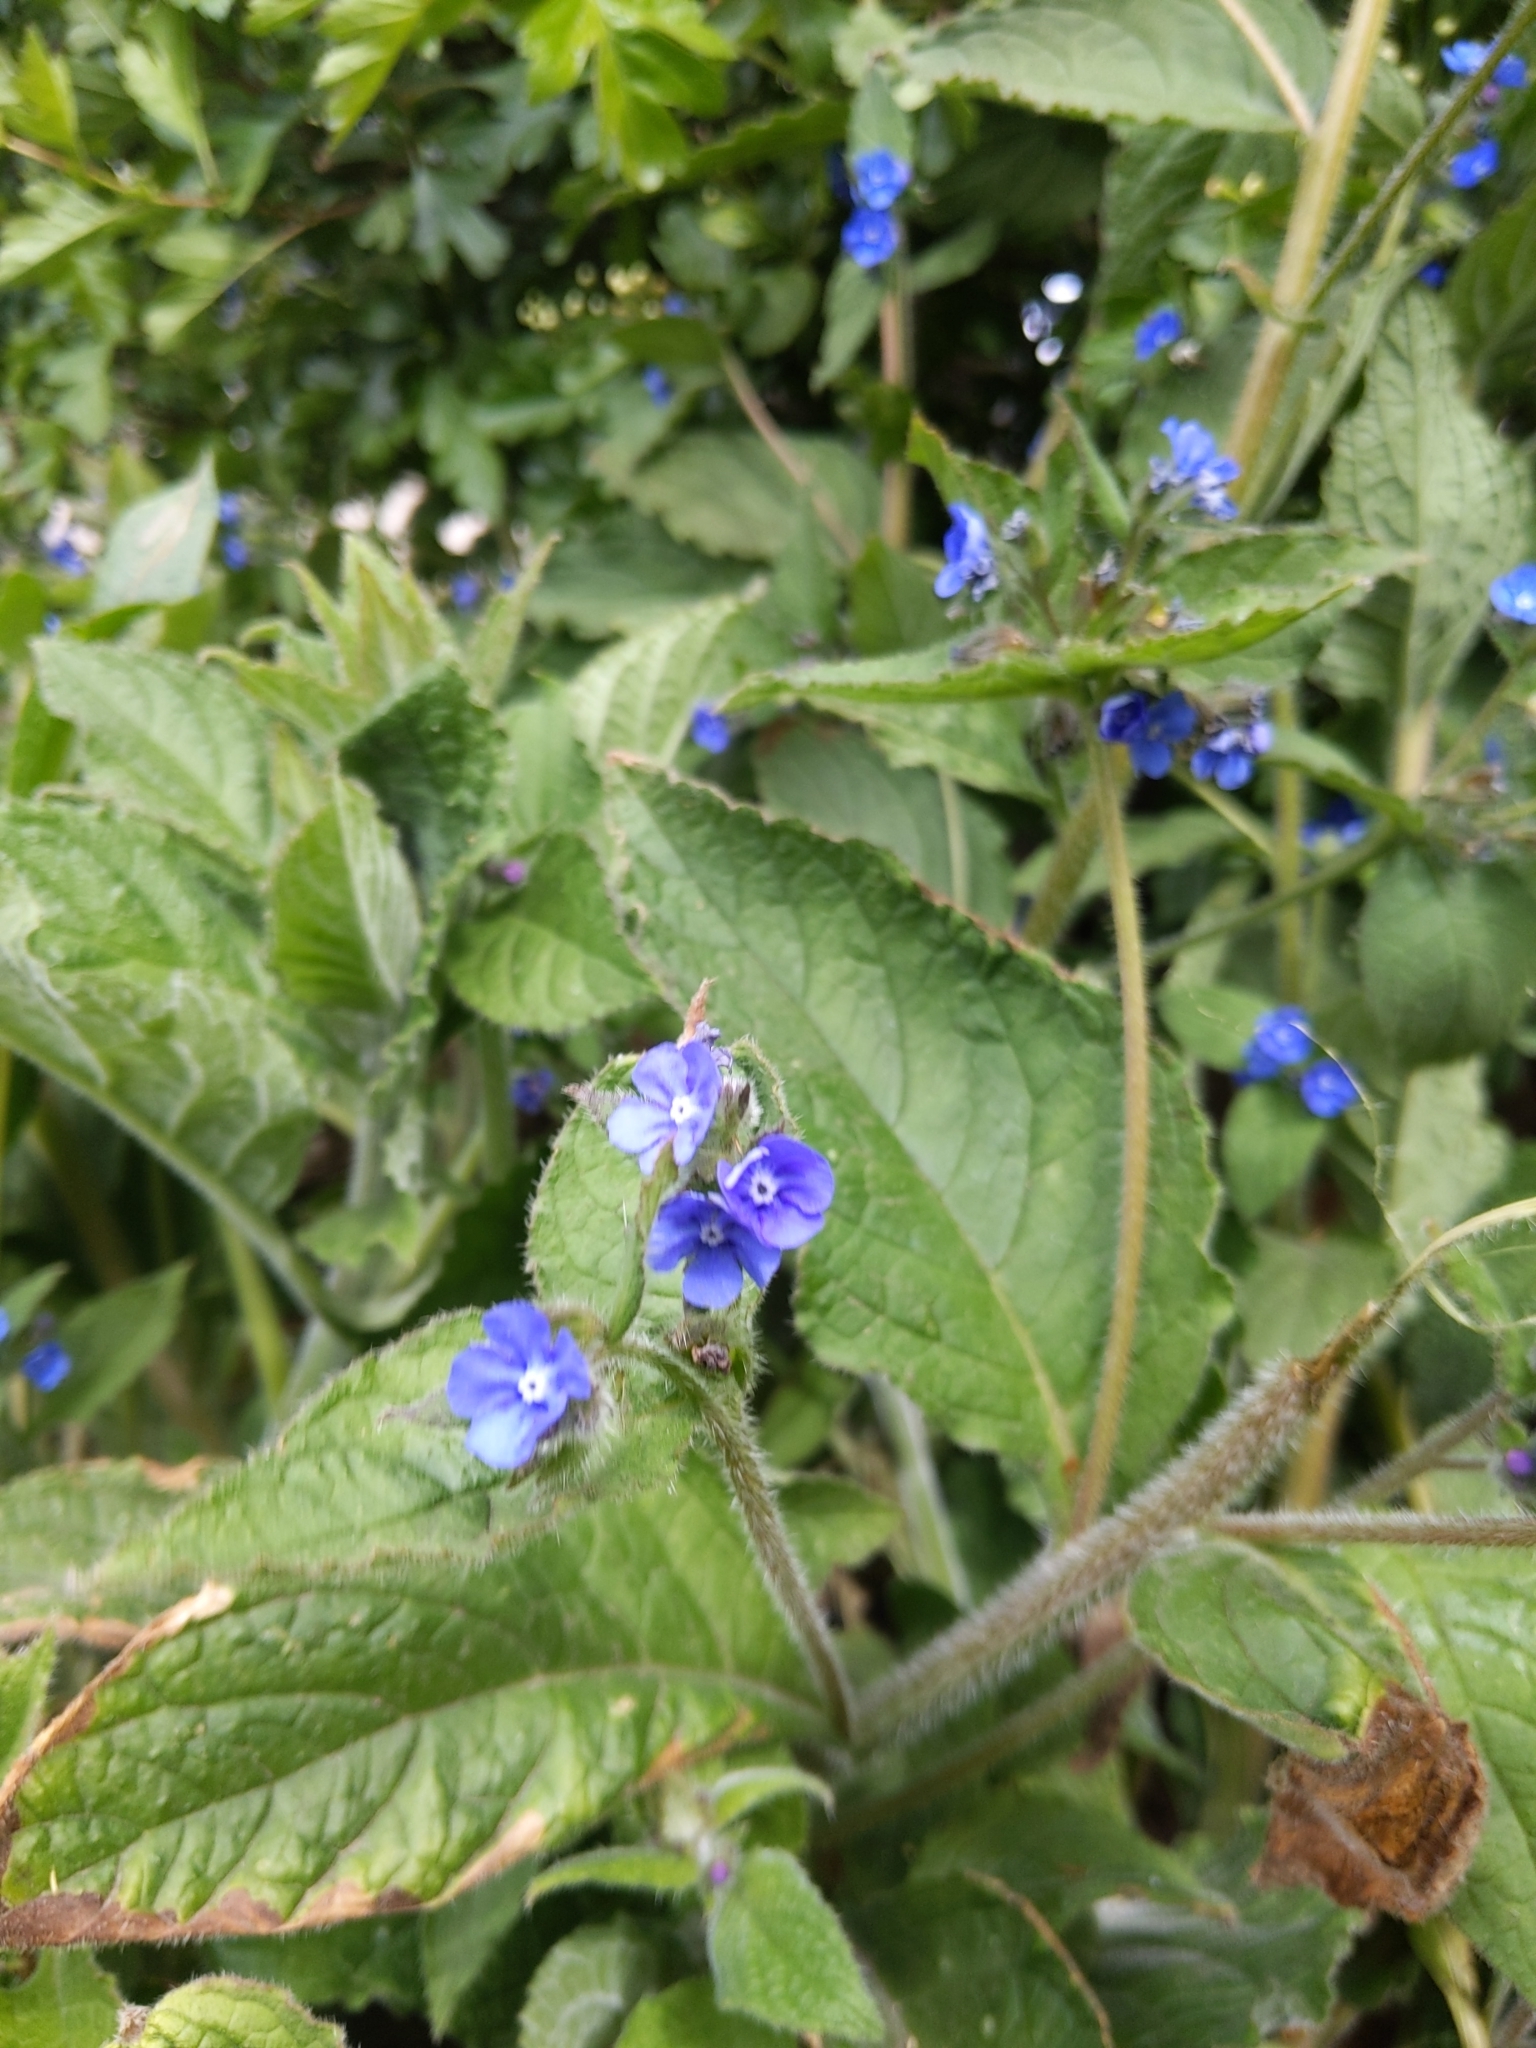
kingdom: Plantae
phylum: Tracheophyta
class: Magnoliopsida
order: Boraginales
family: Boraginaceae
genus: Pentaglottis
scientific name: Pentaglottis sempervirens
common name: Green alkanet
